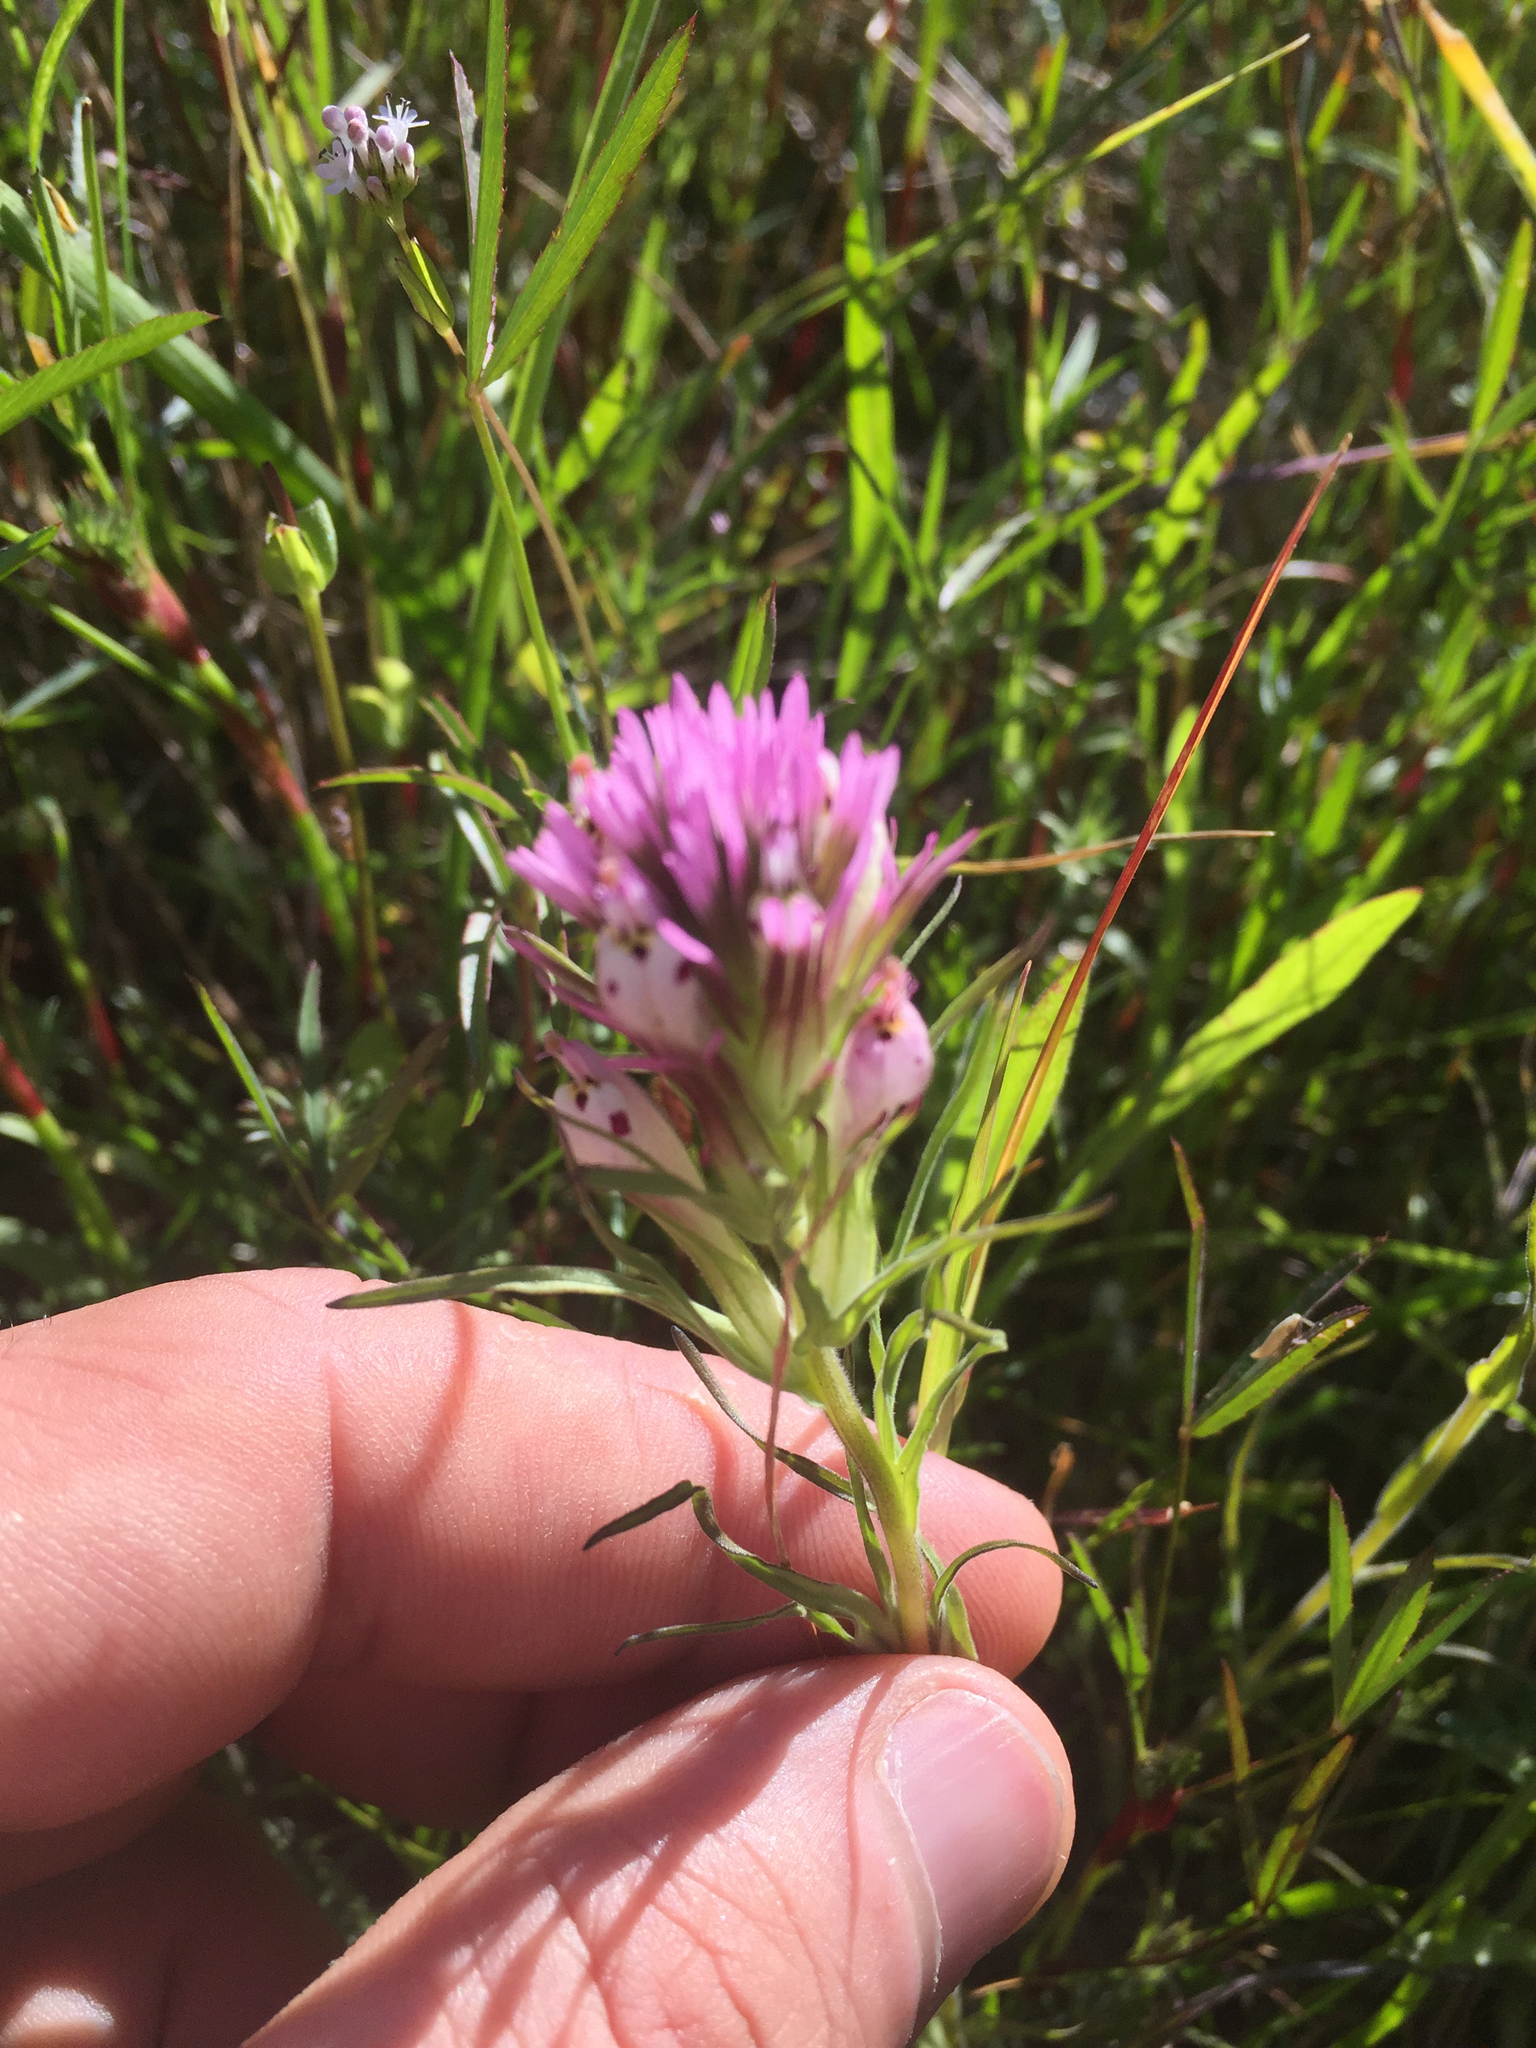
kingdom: Plantae
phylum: Tracheophyta
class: Magnoliopsida
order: Lamiales
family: Orobanchaceae
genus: Castilleja
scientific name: Castilleja densiflora
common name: Dense-flower indian paintbrush
